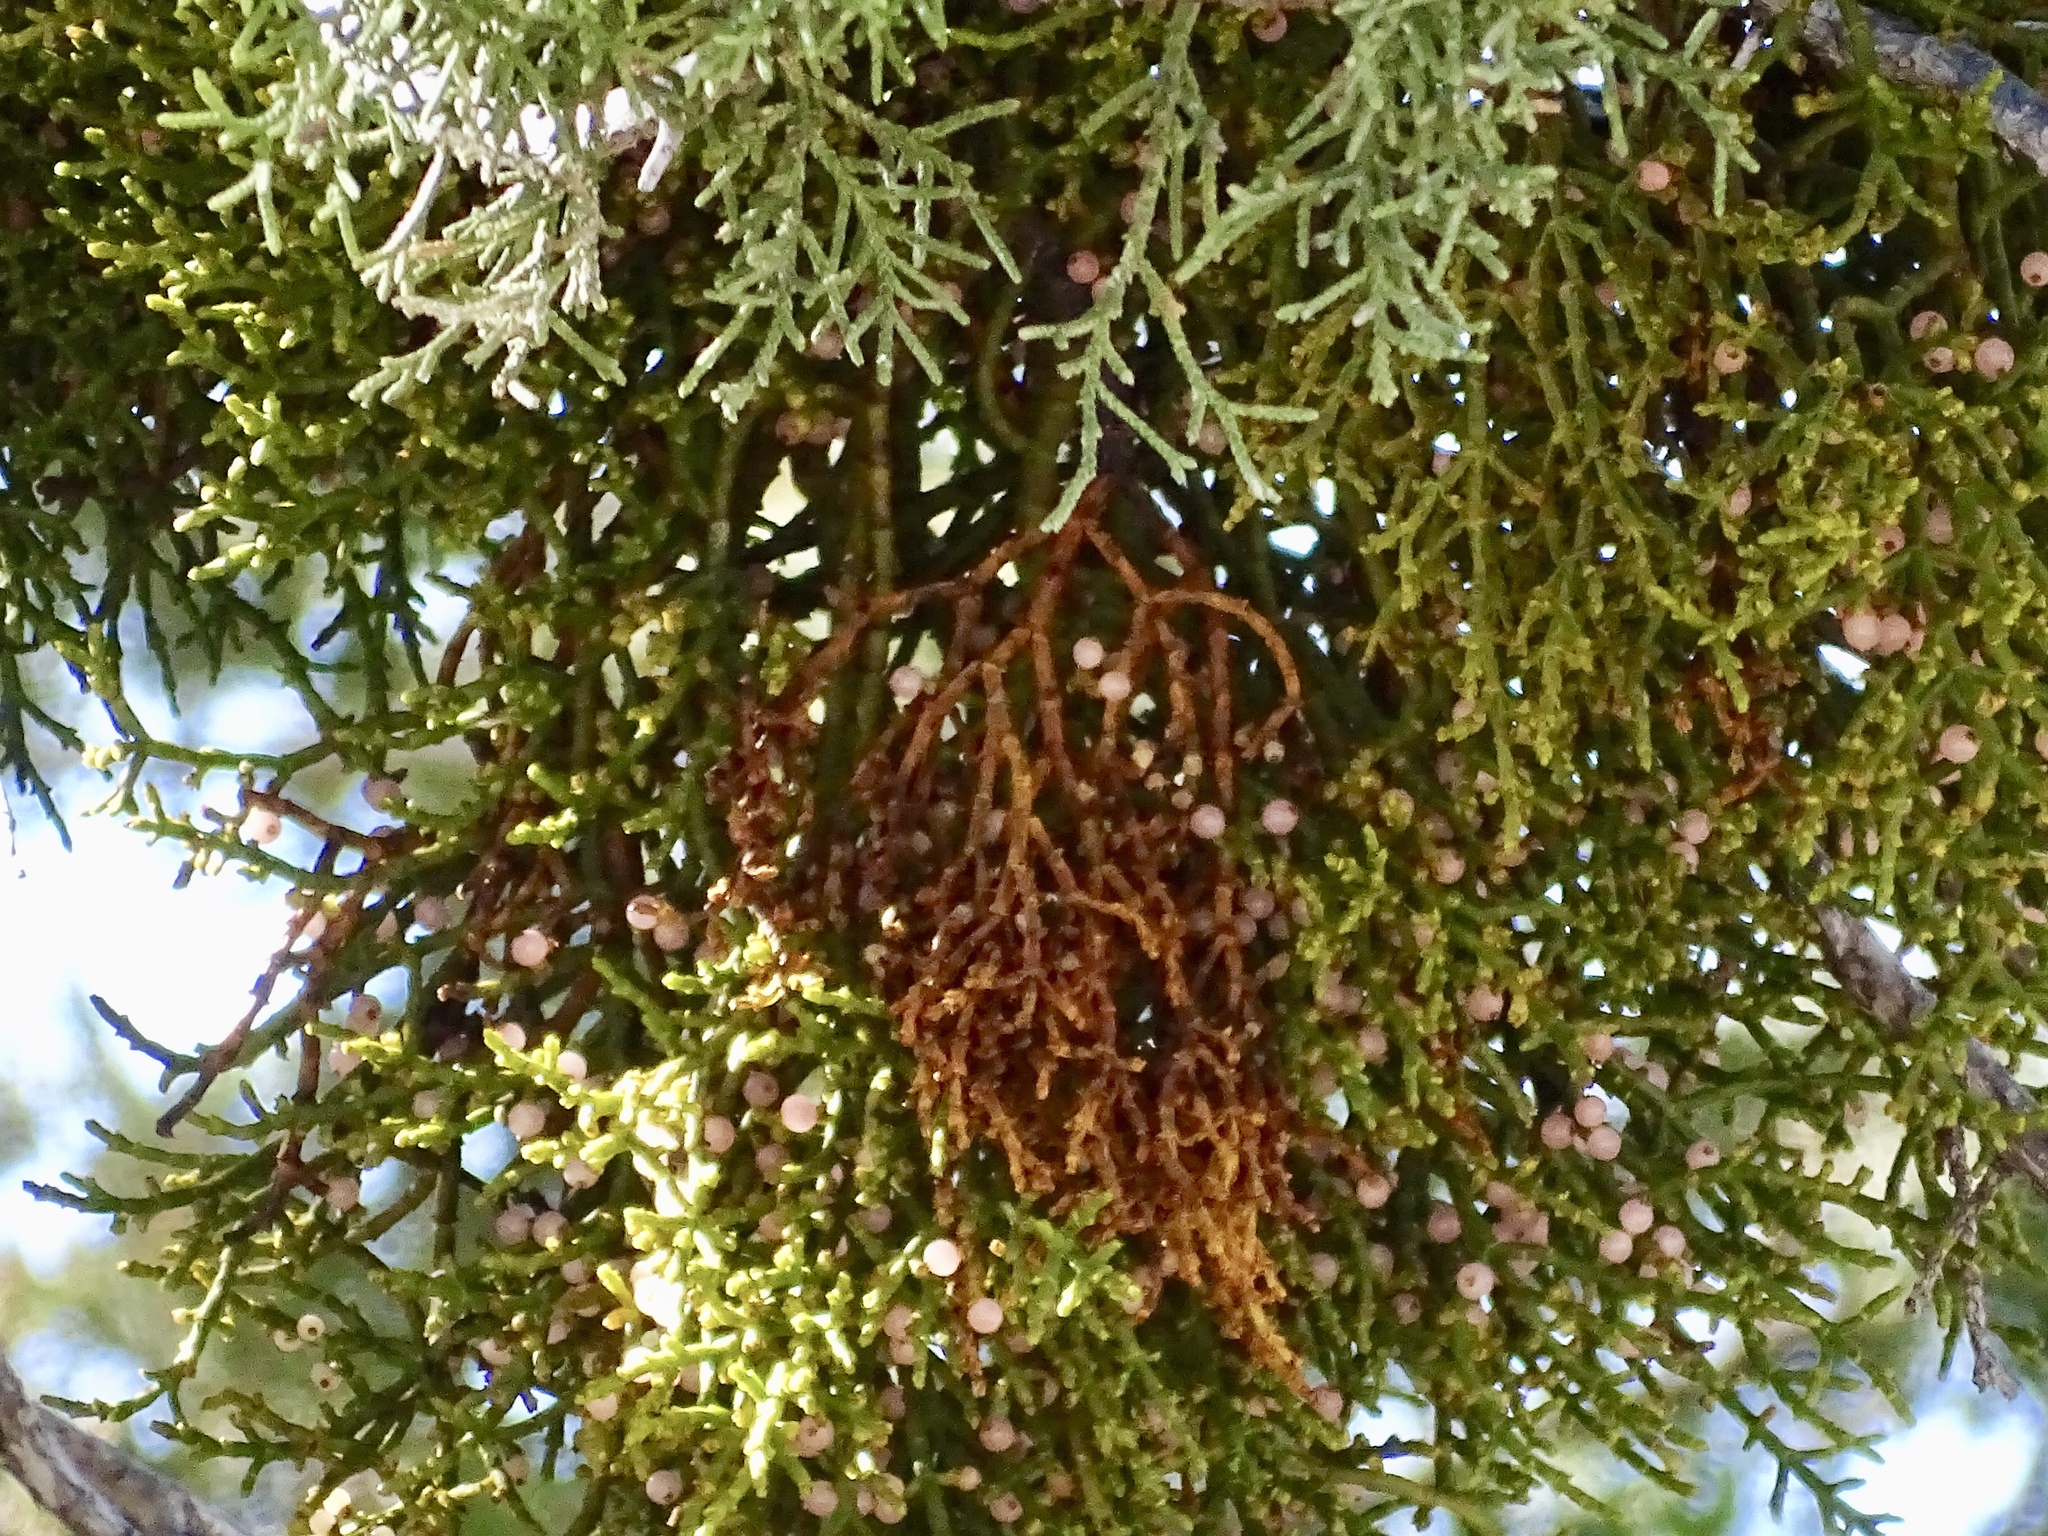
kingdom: Plantae
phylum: Tracheophyta
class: Magnoliopsida
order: Santalales
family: Viscaceae
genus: Phoradendron
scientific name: Phoradendron juniperinum
